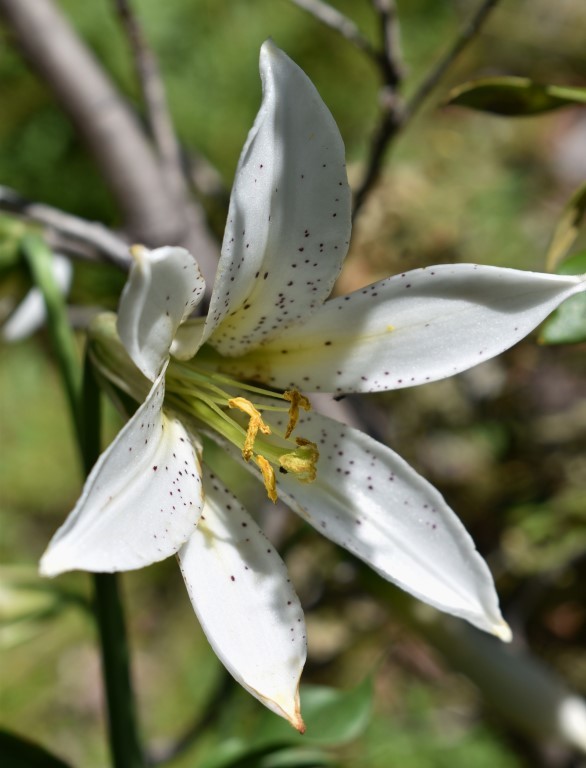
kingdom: Plantae
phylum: Tracheophyta
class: Liliopsida
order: Liliales
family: Liliaceae
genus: Lilium
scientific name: Lilium washingtonianum
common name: Washington lily
